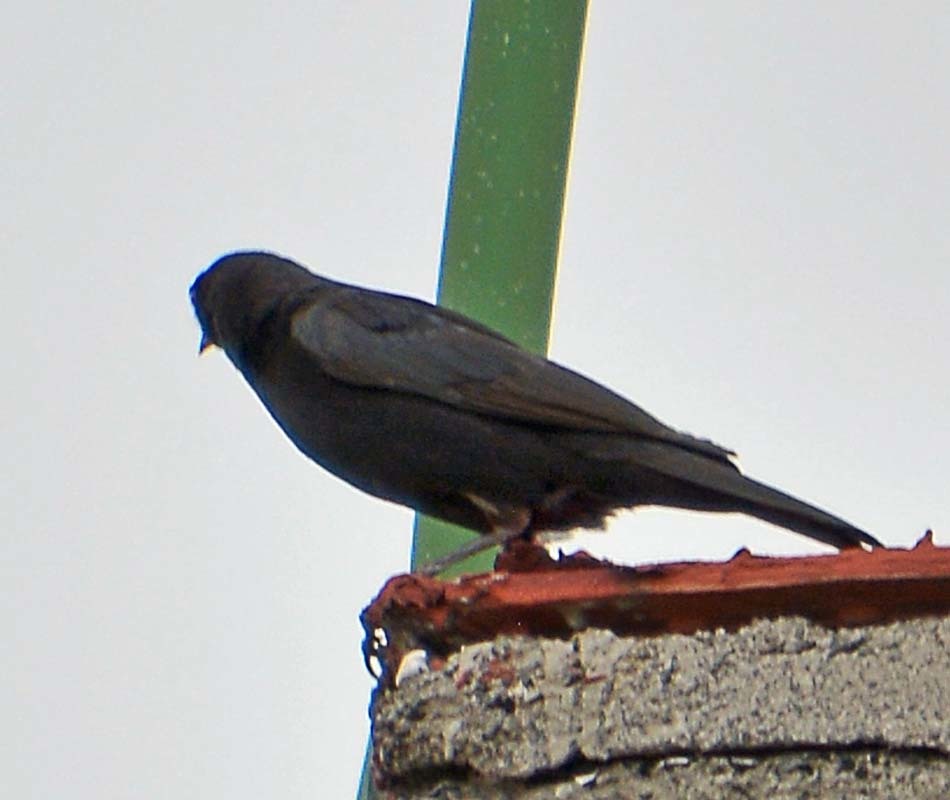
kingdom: Animalia
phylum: Chordata
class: Aves
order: Passeriformes
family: Icteridae
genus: Molothrus
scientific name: Molothrus aeneus
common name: Bronzed cowbird
